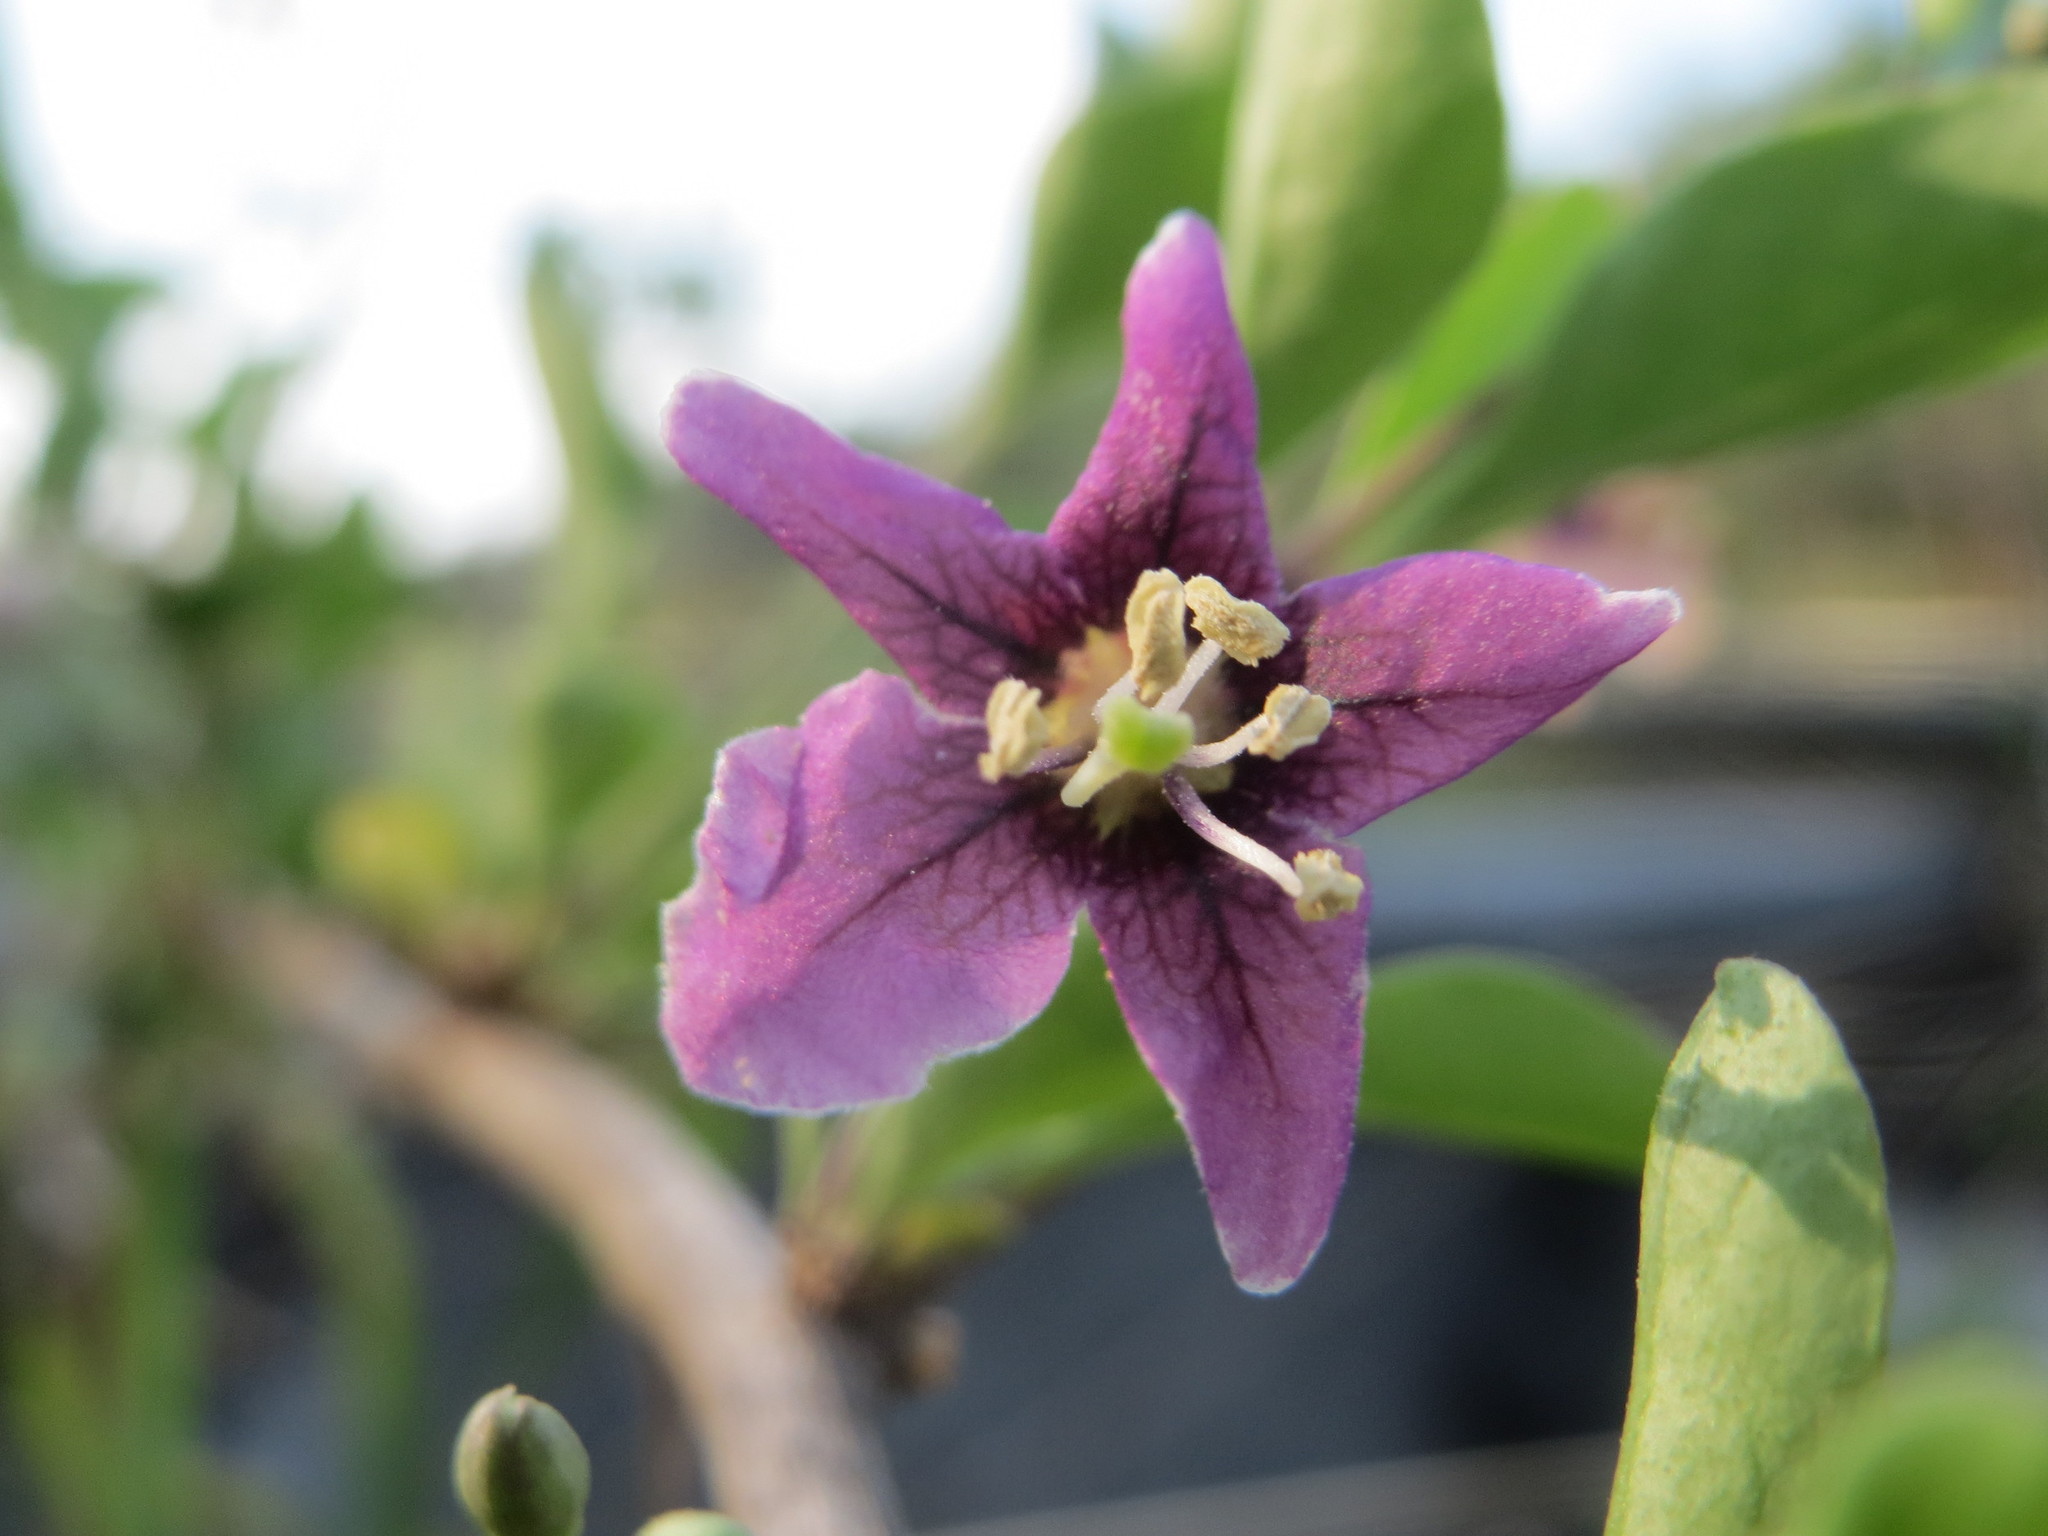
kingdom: Plantae
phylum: Tracheophyta
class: Magnoliopsida
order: Solanales
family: Solanaceae
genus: Lycium
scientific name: Lycium barbarum
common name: Duke of argyll's teaplant
